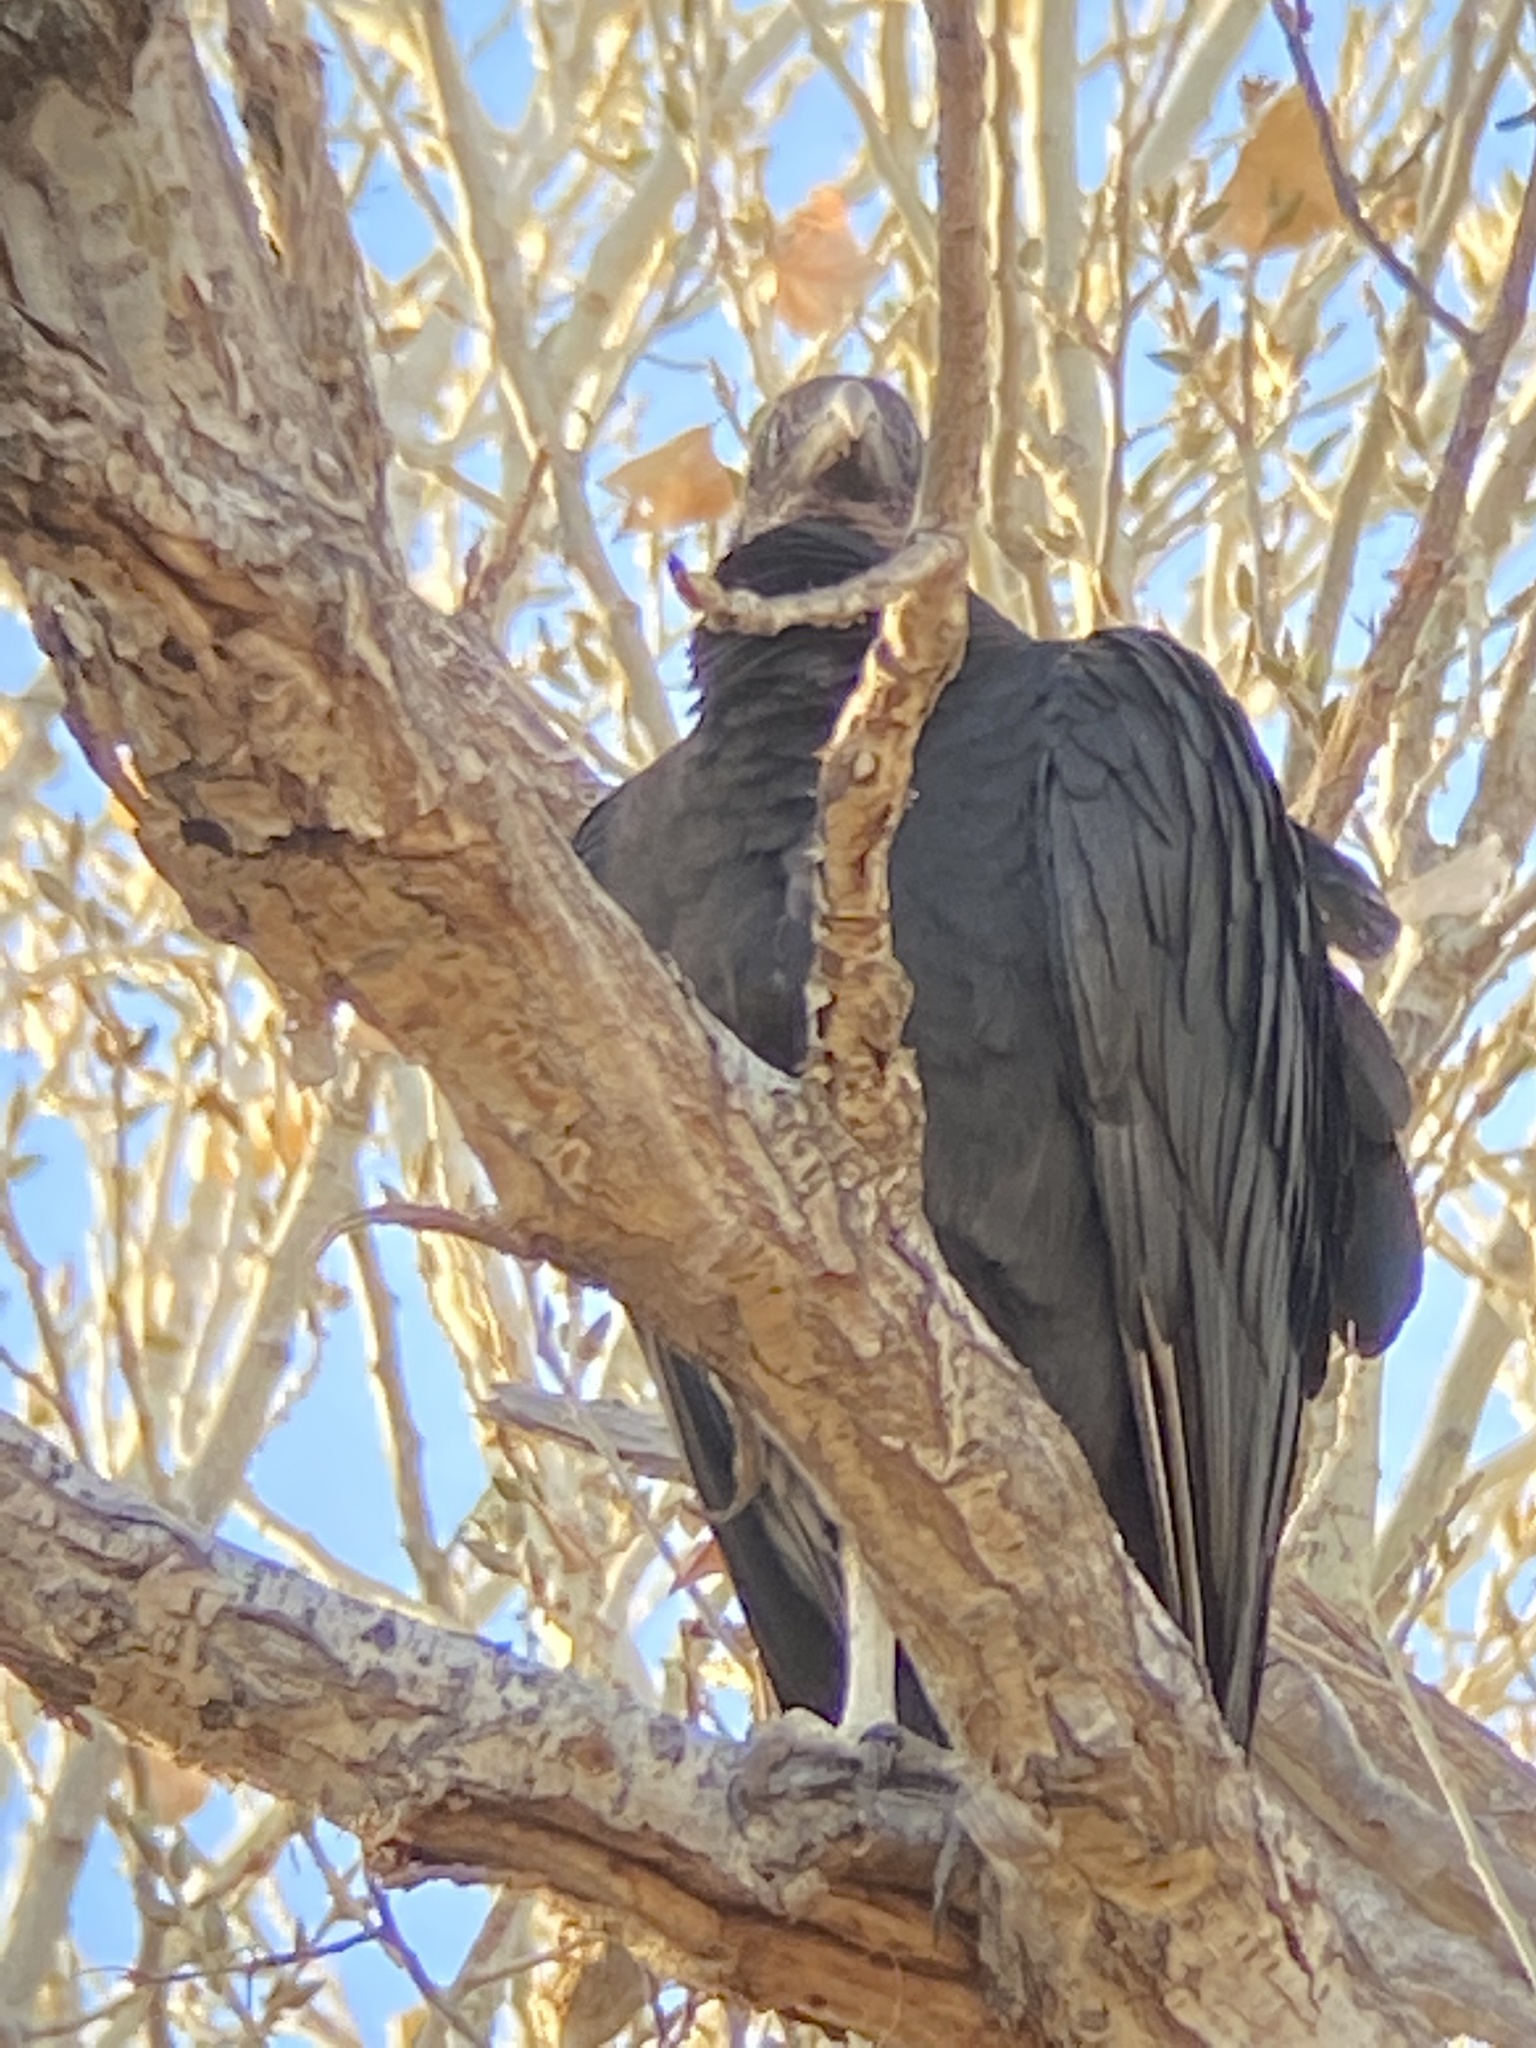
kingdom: Animalia
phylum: Chordata
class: Aves
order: Accipitriformes
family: Cathartidae
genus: Coragyps
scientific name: Coragyps atratus
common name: Black vulture
